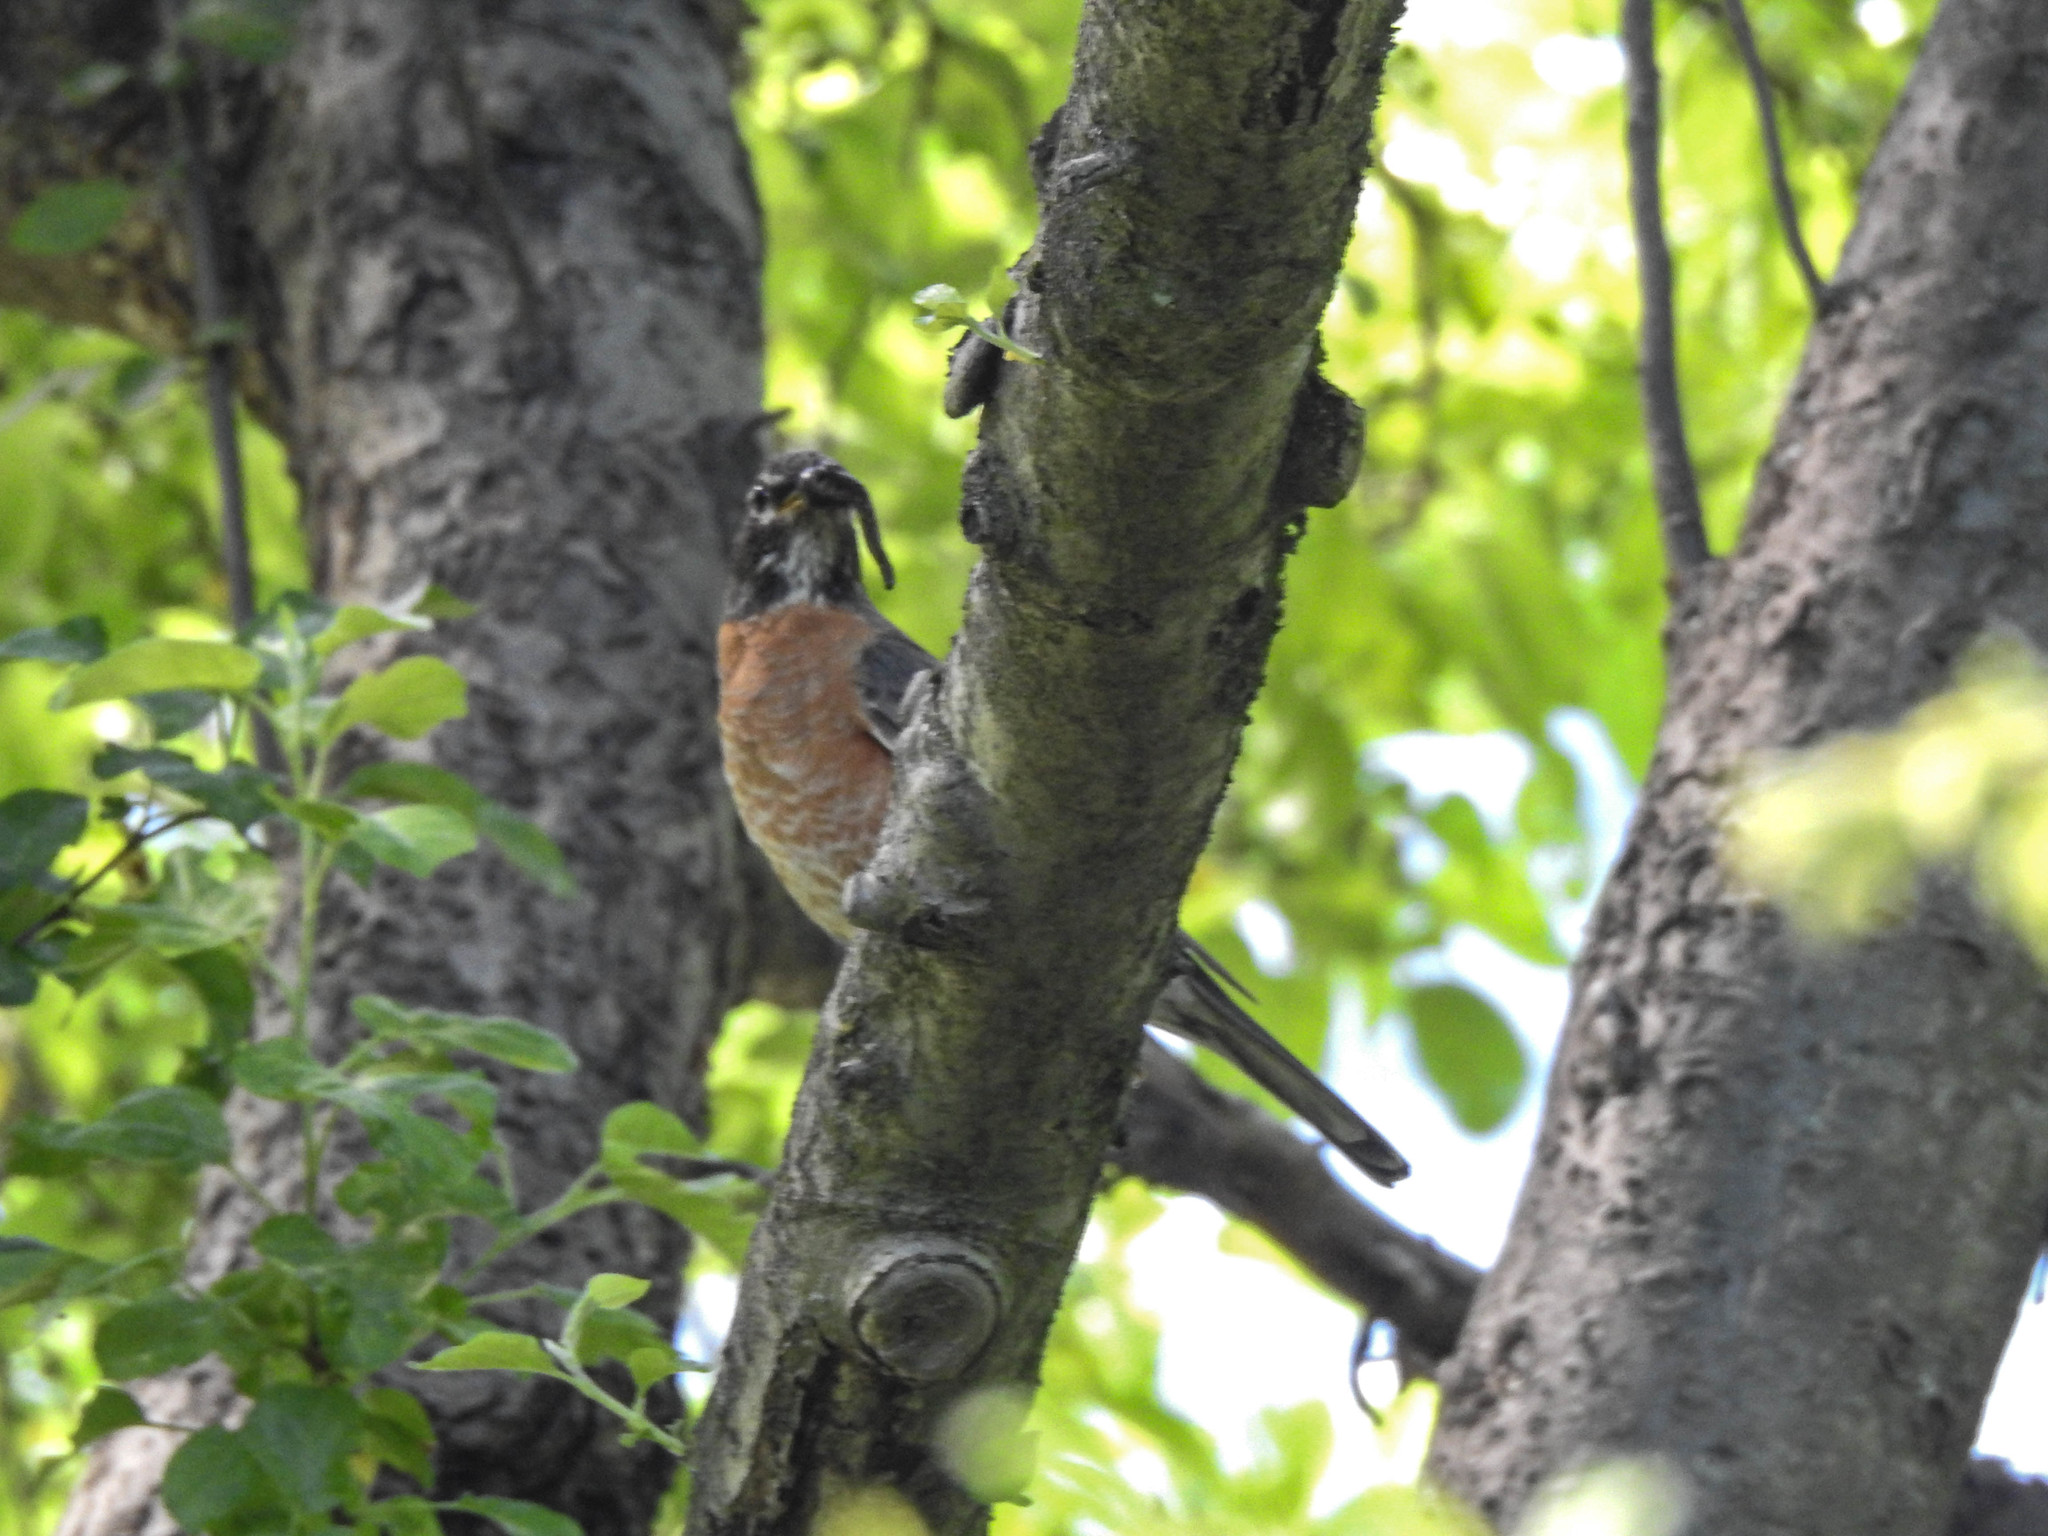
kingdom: Animalia
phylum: Chordata
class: Aves
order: Passeriformes
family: Turdidae
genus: Turdus
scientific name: Turdus migratorius
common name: American robin
